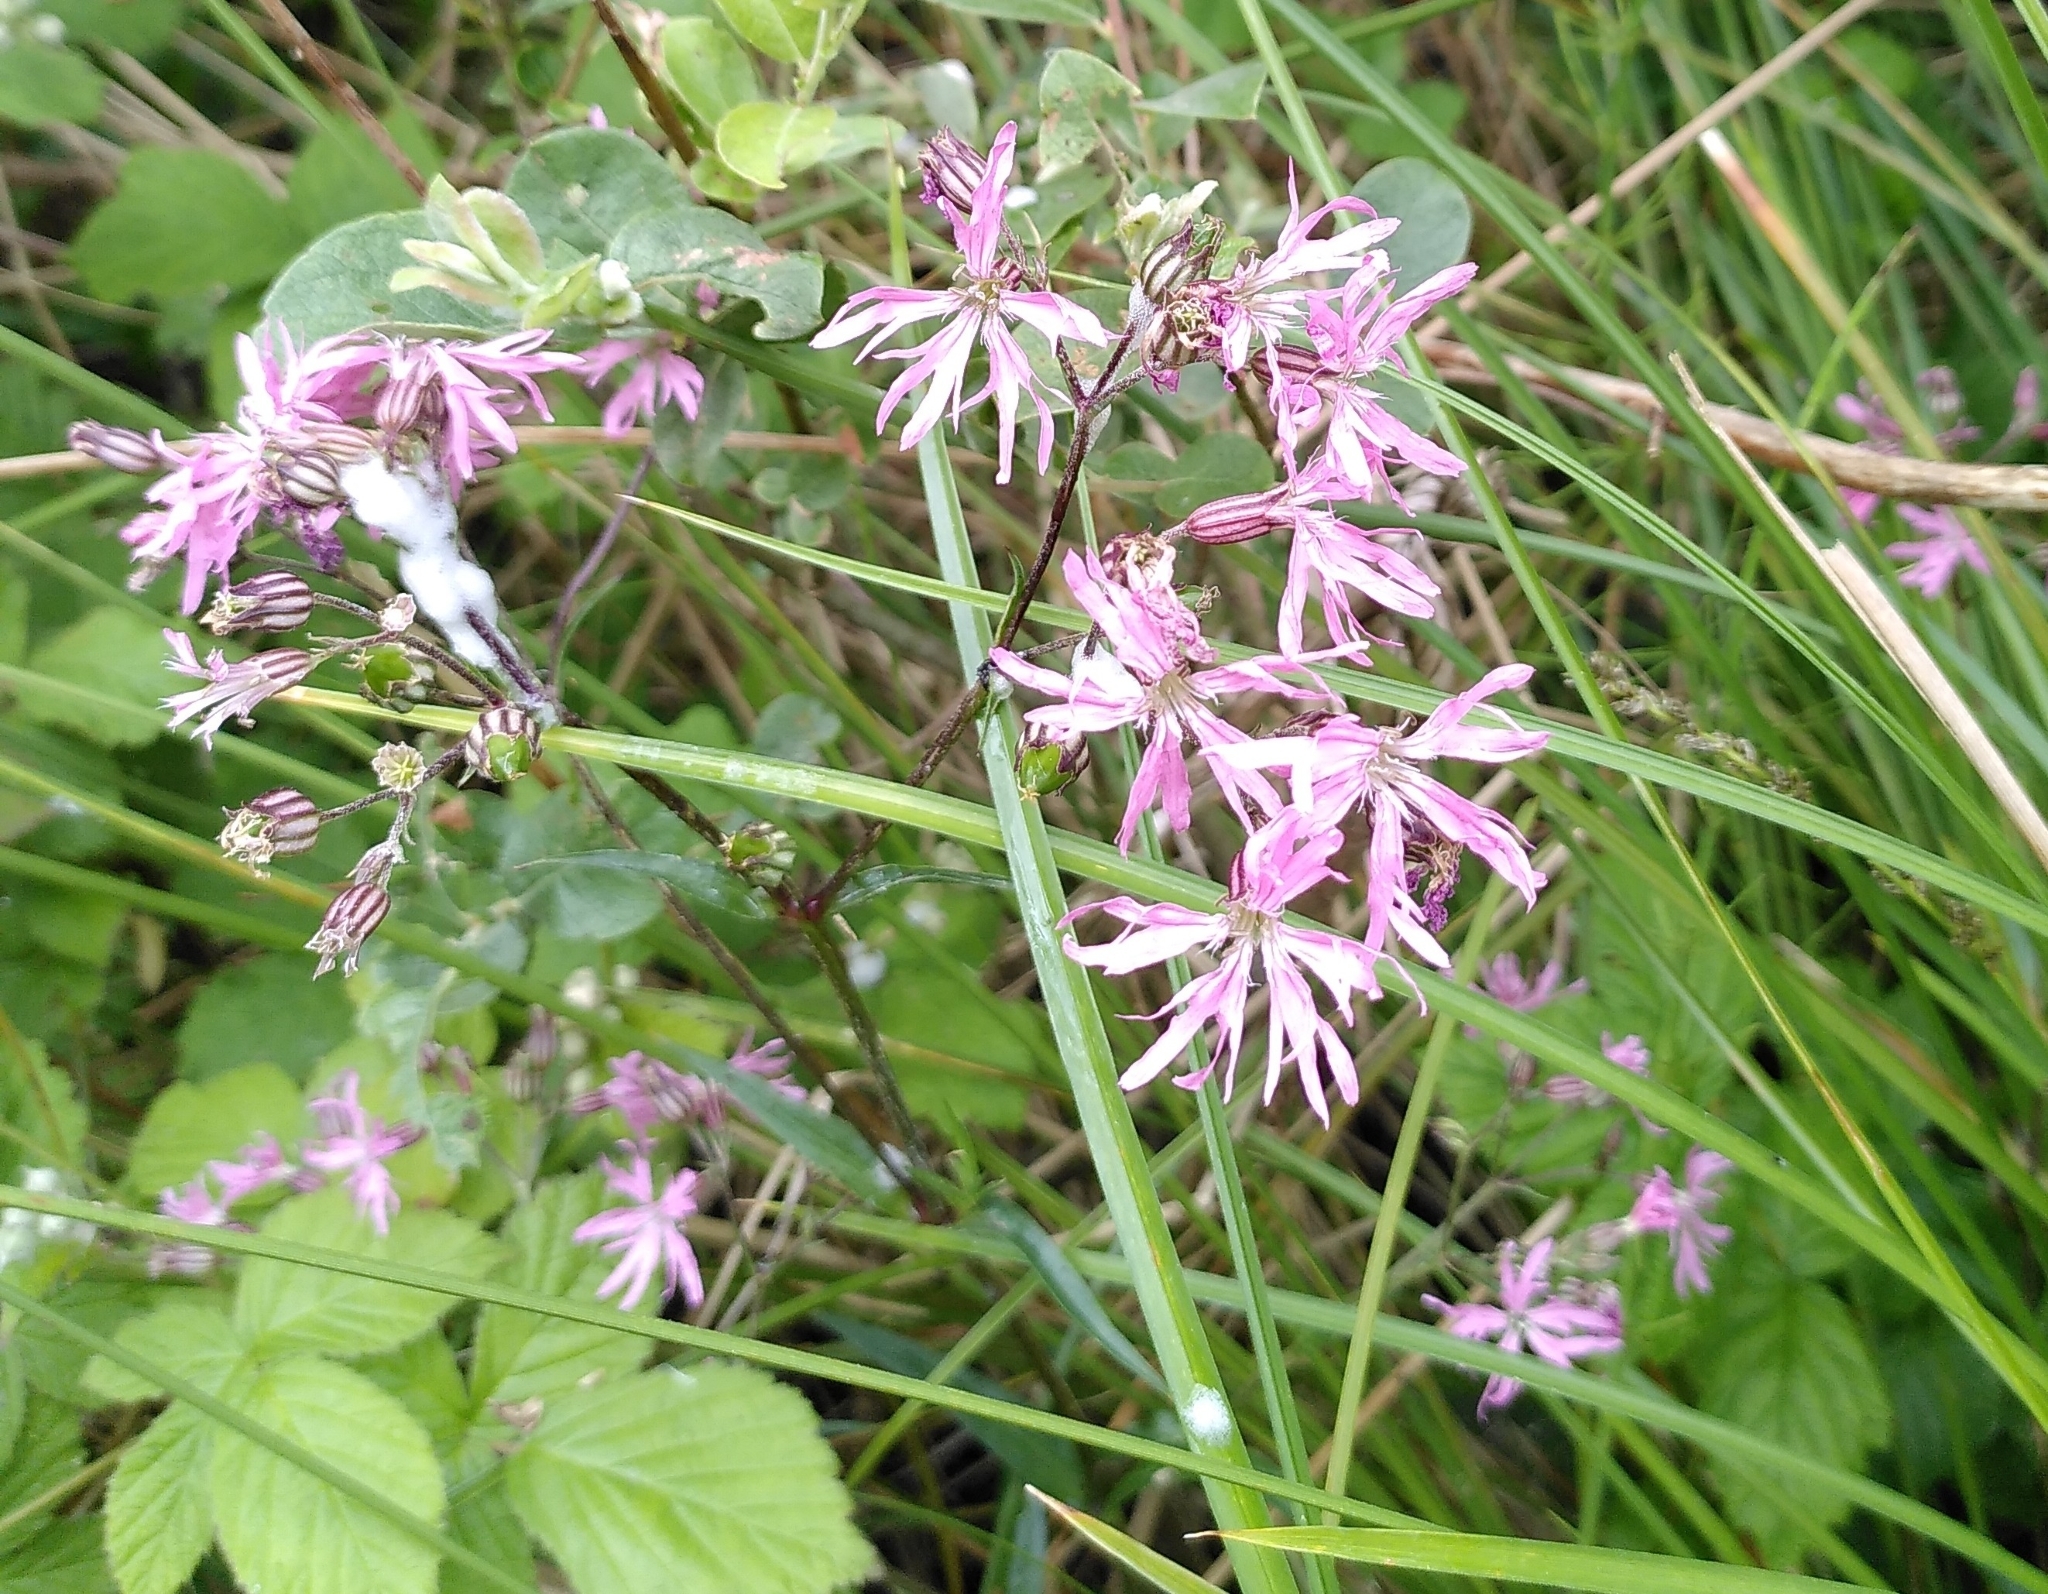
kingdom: Plantae
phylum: Tracheophyta
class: Magnoliopsida
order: Caryophyllales
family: Caryophyllaceae
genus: Silene
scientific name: Silene flos-cuculi
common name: Ragged-robin
